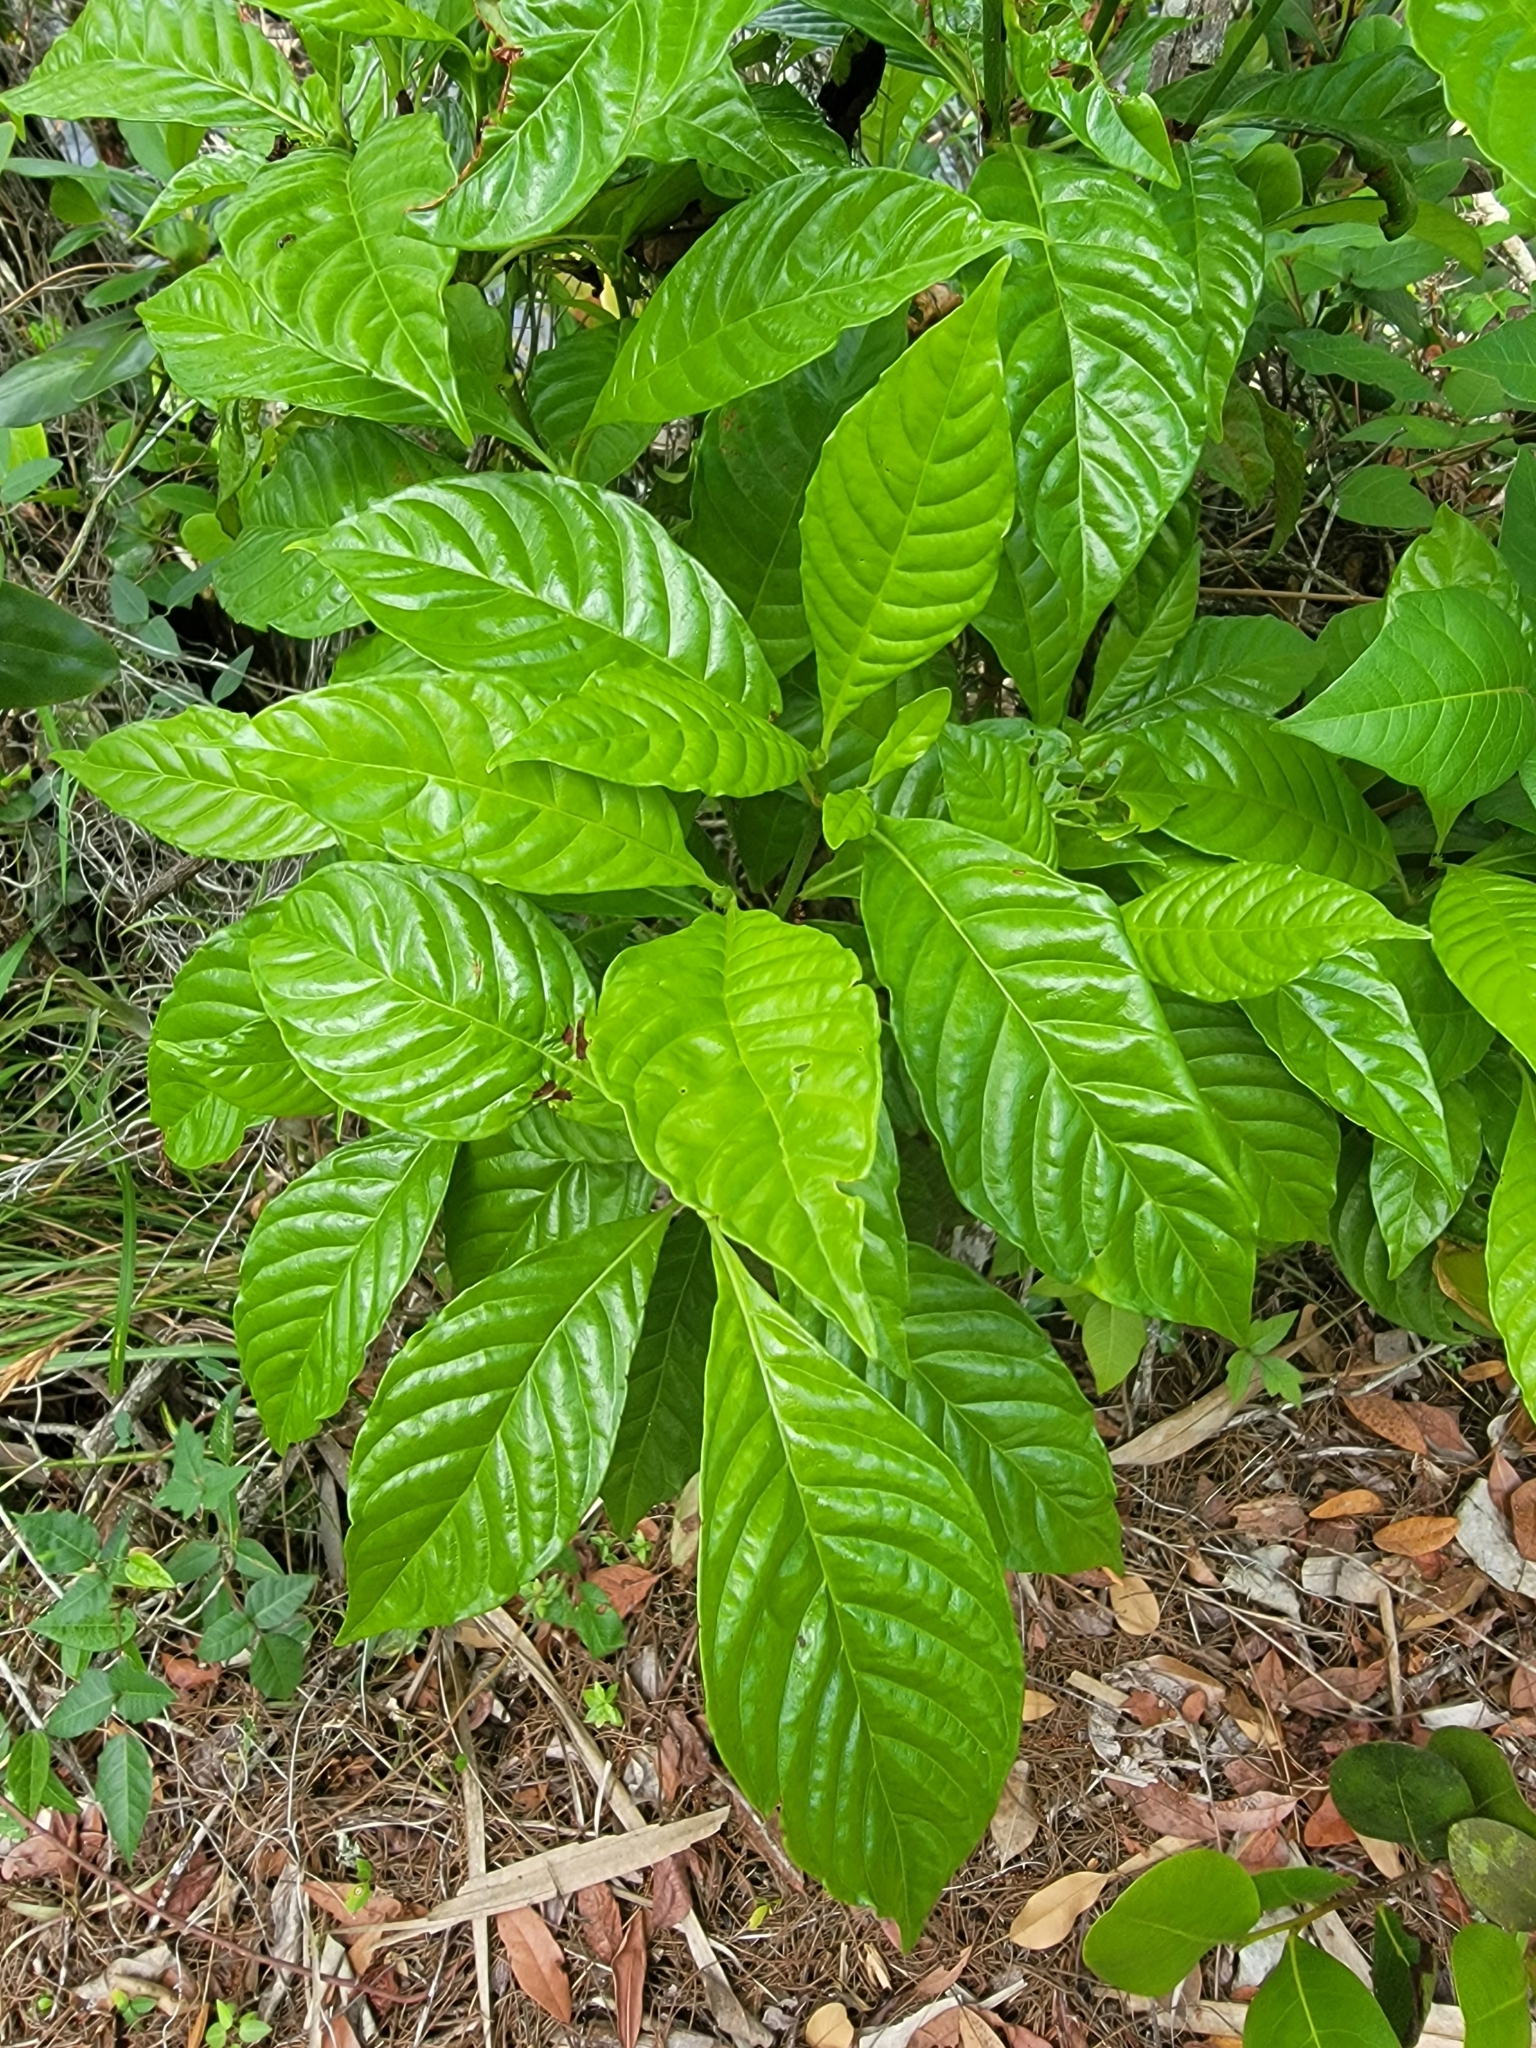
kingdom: Plantae
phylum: Tracheophyta
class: Magnoliopsida
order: Gentianales
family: Rubiaceae
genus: Psychotria
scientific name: Psychotria nervosa
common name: Bastard cankerberry
